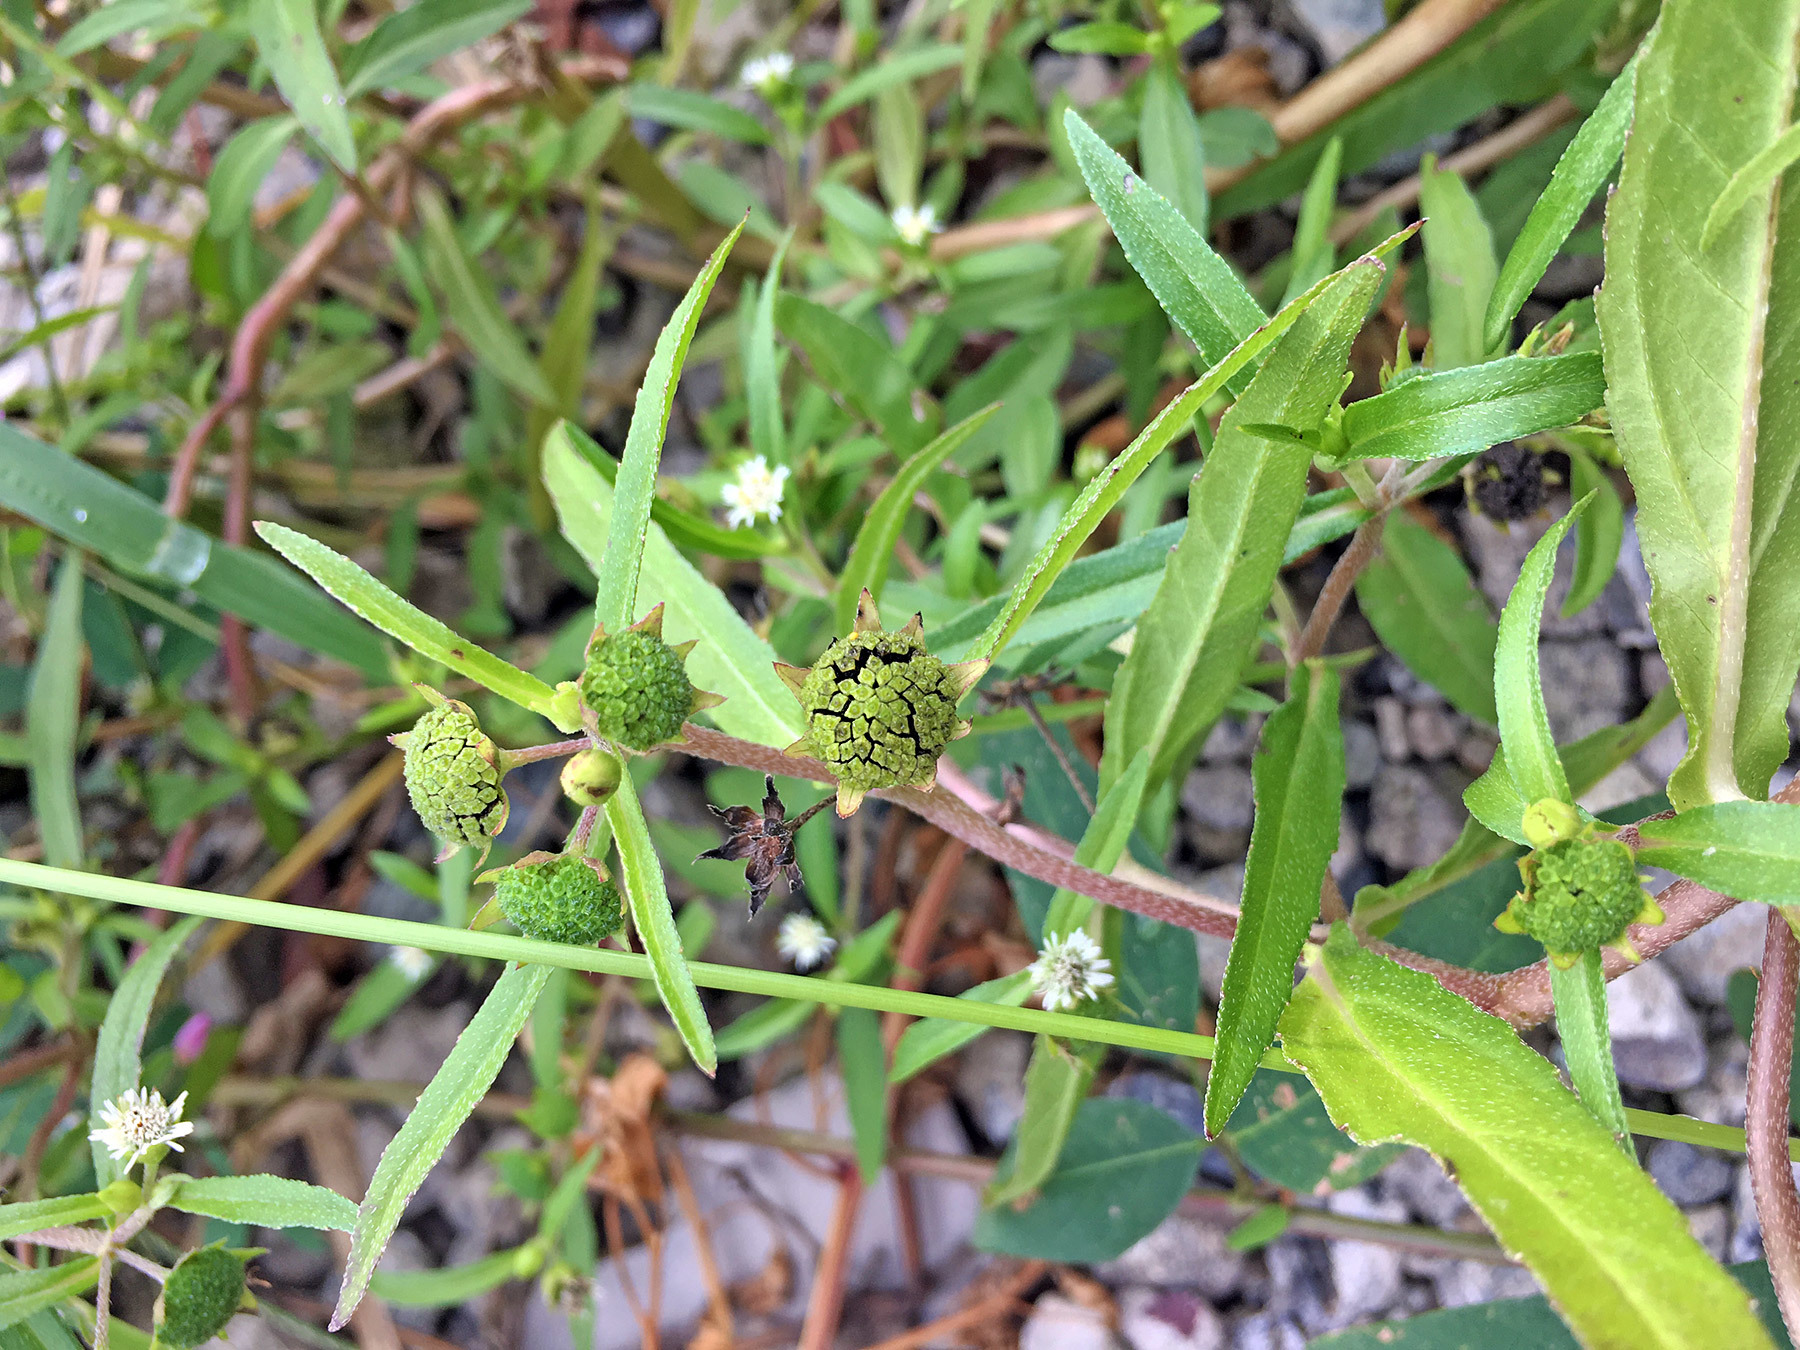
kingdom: Plantae
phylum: Tracheophyta
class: Magnoliopsida
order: Asterales
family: Asteraceae
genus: Eclipta
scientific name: Eclipta prostrata
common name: False daisy
